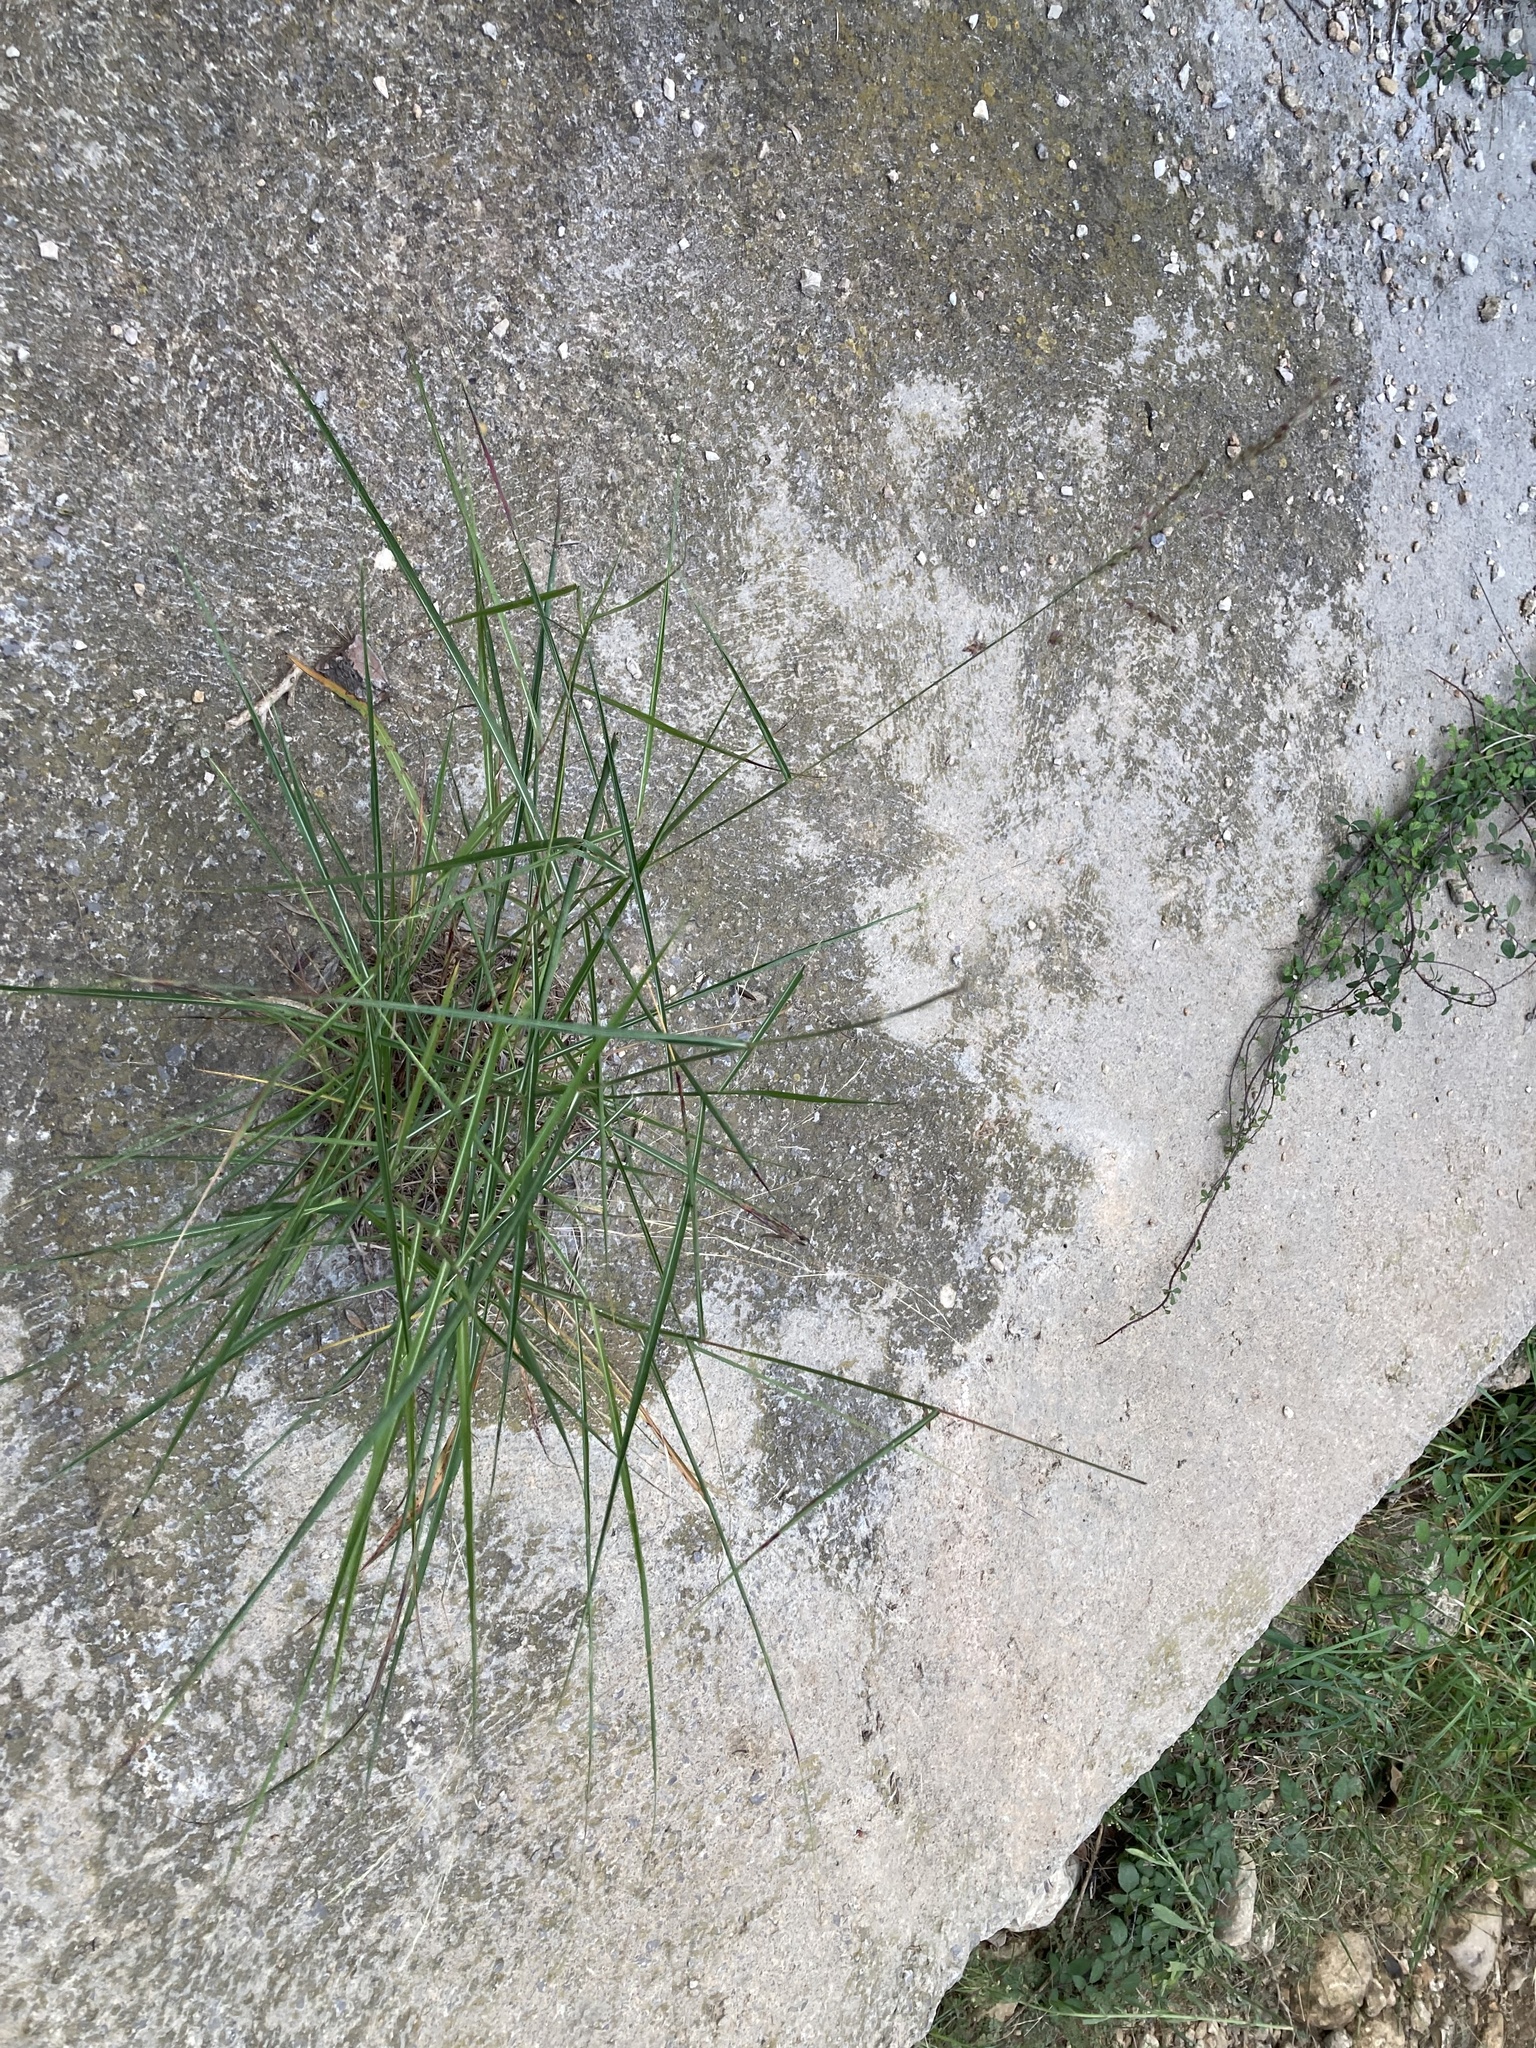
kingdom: Plantae
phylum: Tracheophyta
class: Liliopsida
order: Poales
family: Poaceae
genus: Sorghum
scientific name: Sorghum halepense
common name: Johnson-grass
